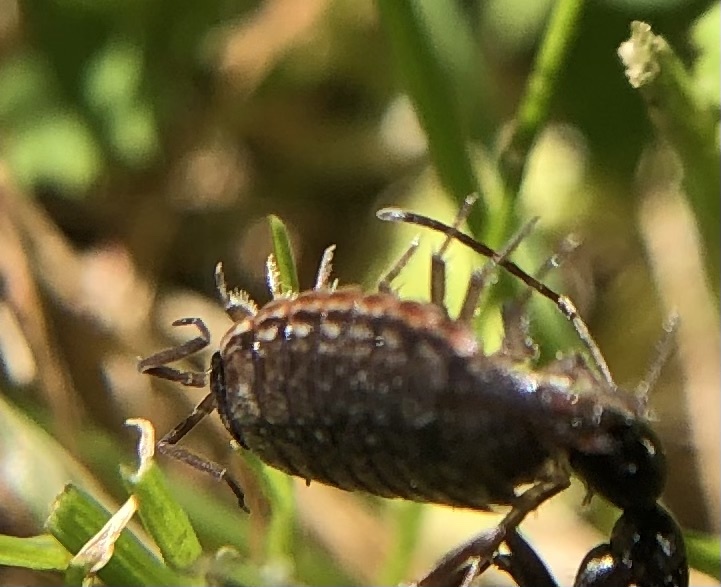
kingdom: Animalia
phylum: Arthropoda
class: Malacostraca
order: Isopoda
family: Philosciidae
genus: Philoscia
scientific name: Philoscia muscorum
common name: Common striped woodlouse
